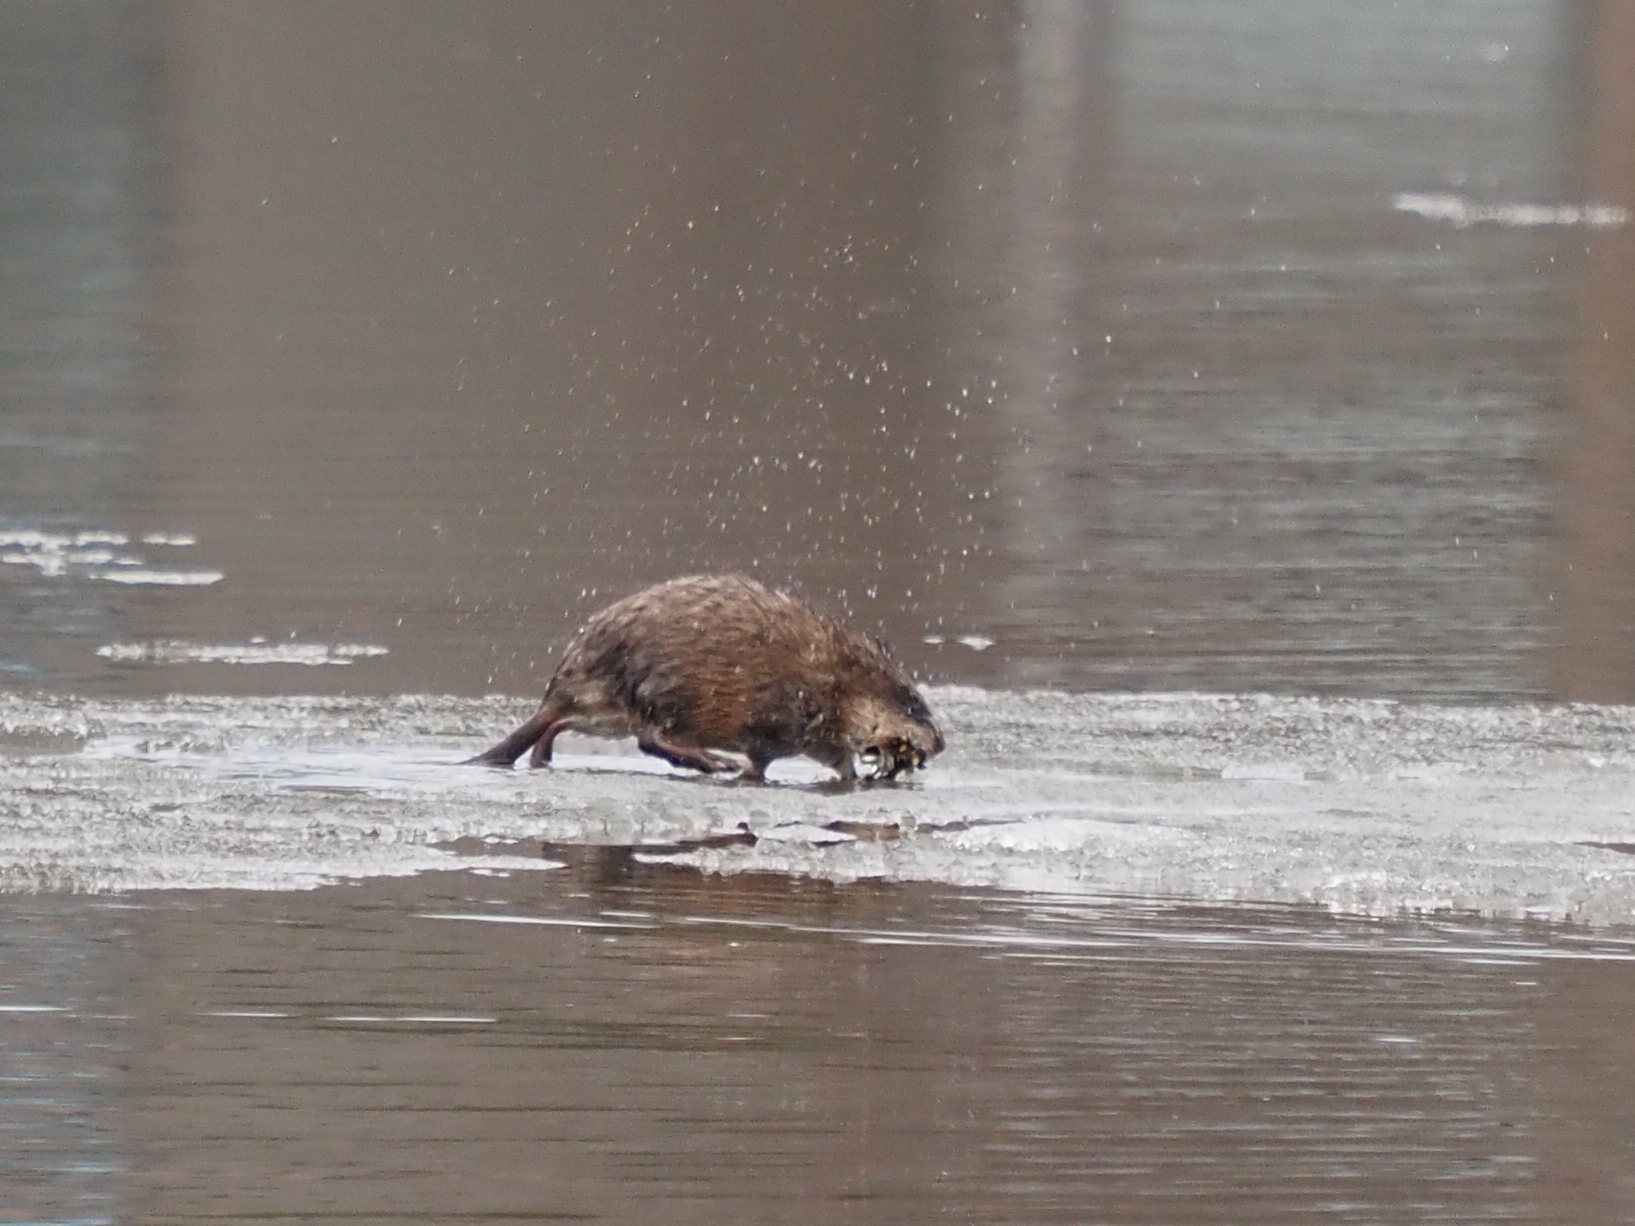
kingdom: Animalia
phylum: Chordata
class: Mammalia
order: Rodentia
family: Cricetidae
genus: Ondatra
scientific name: Ondatra zibethicus
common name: Muskrat
